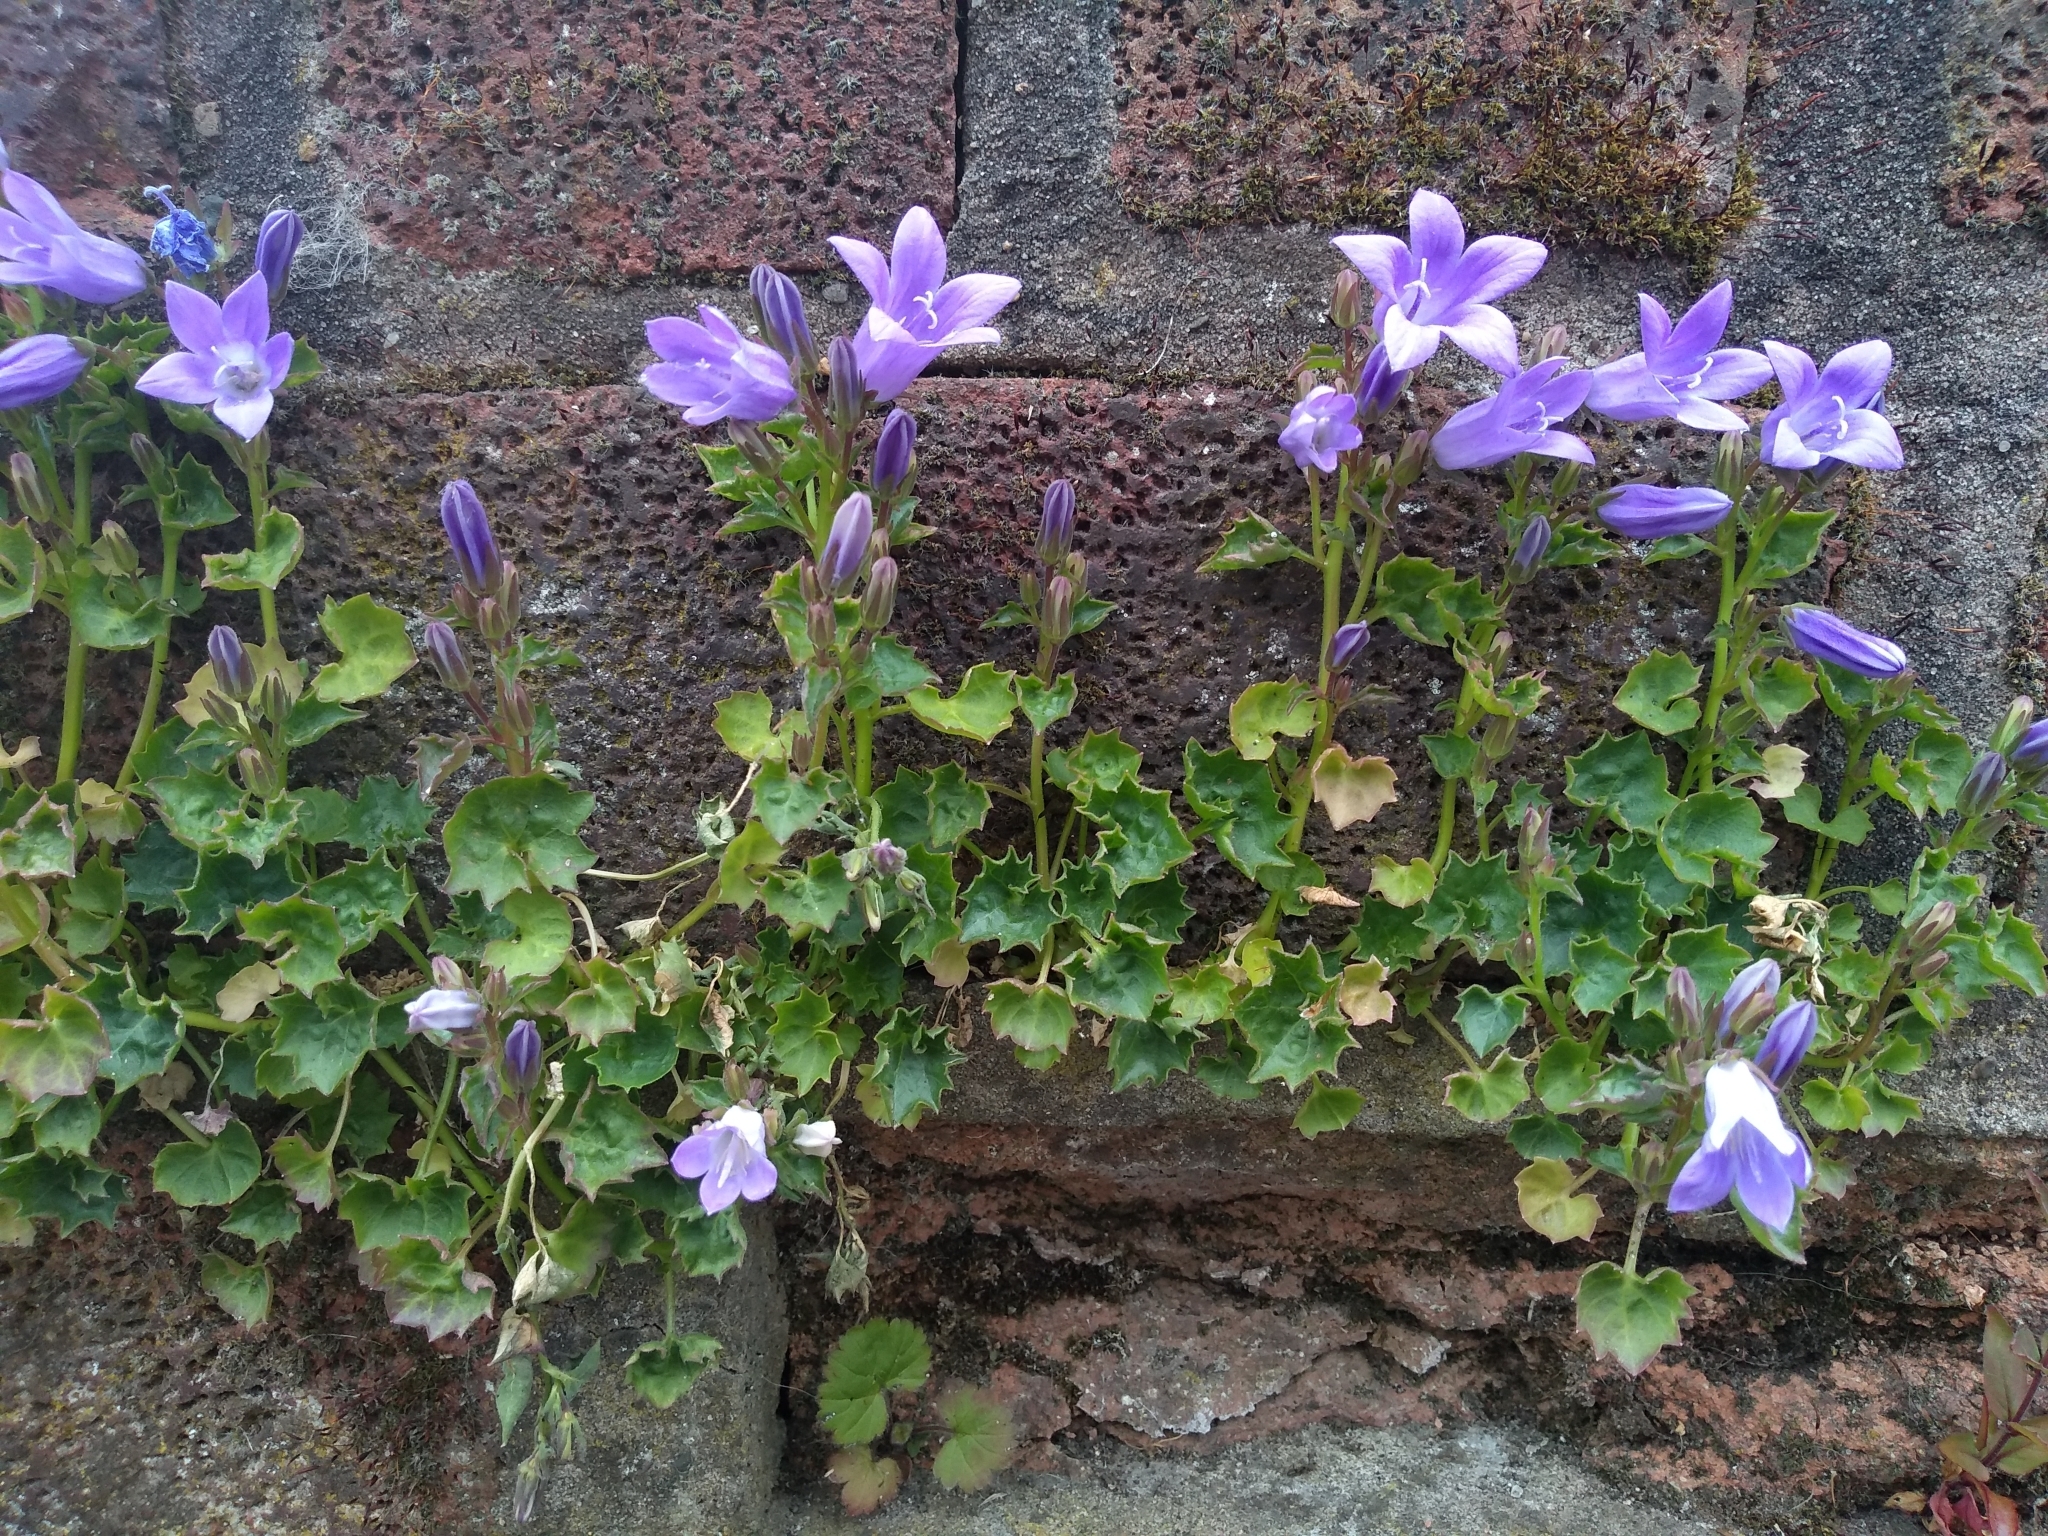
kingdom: Plantae
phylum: Tracheophyta
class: Magnoliopsida
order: Asterales
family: Campanulaceae
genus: Campanula
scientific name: Campanula portenschlagiana
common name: Adria bellflower
